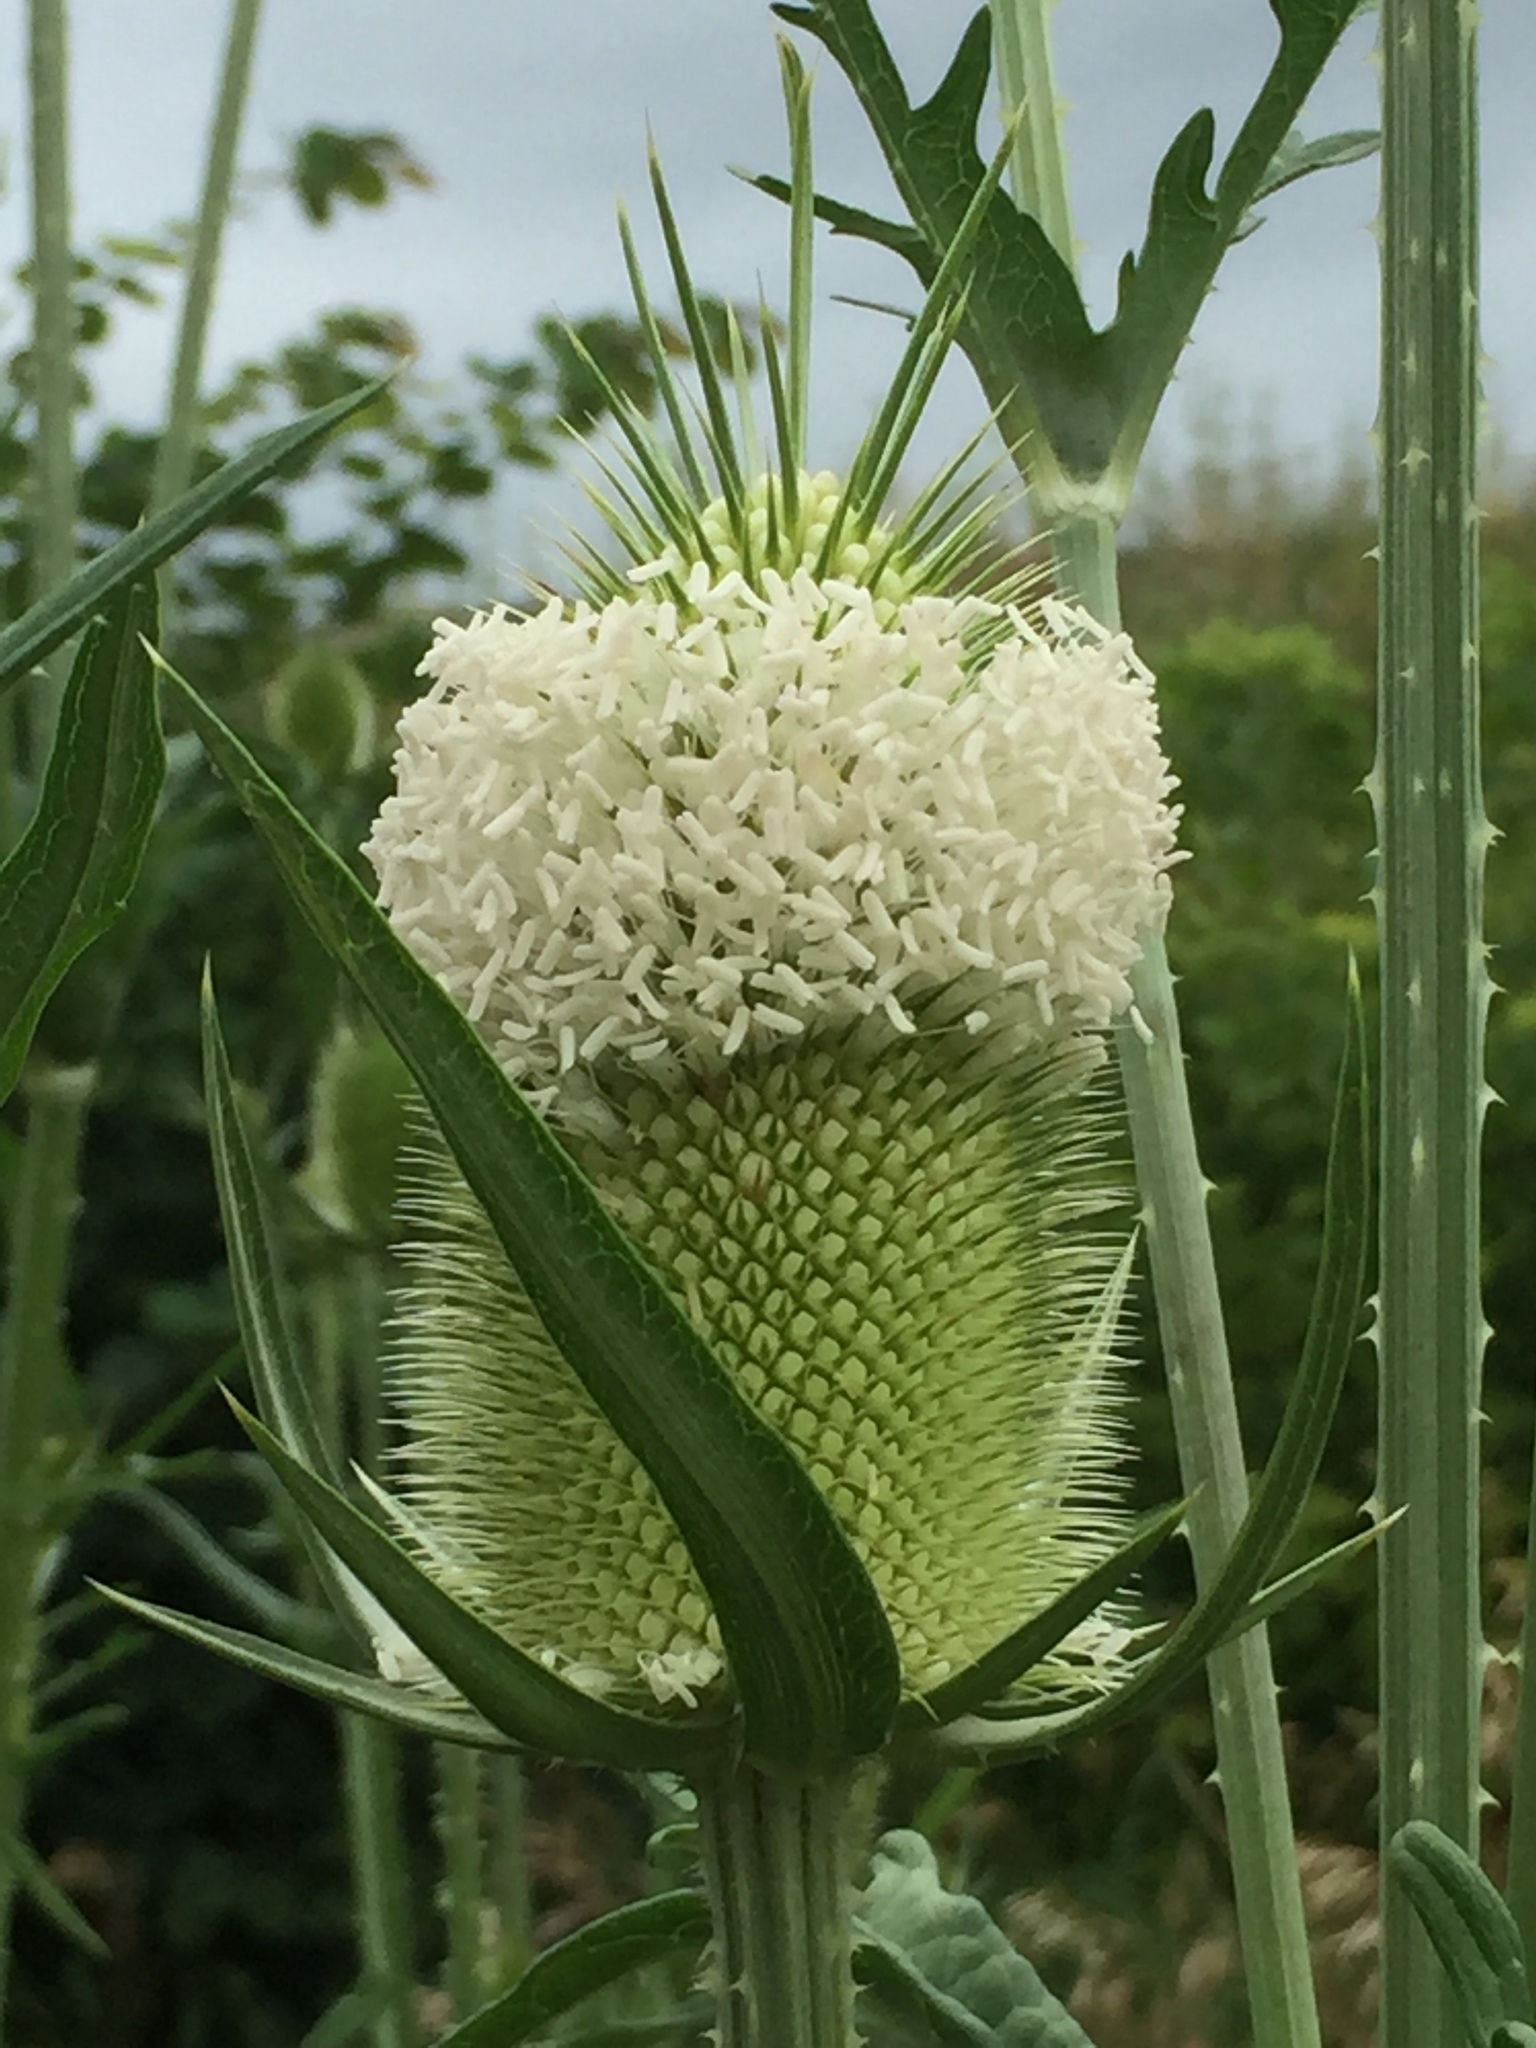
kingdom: Plantae
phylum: Tracheophyta
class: Magnoliopsida
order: Dipsacales
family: Caprifoliaceae
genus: Dipsacus
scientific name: Dipsacus laciniatus
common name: Cut-leaved teasel
